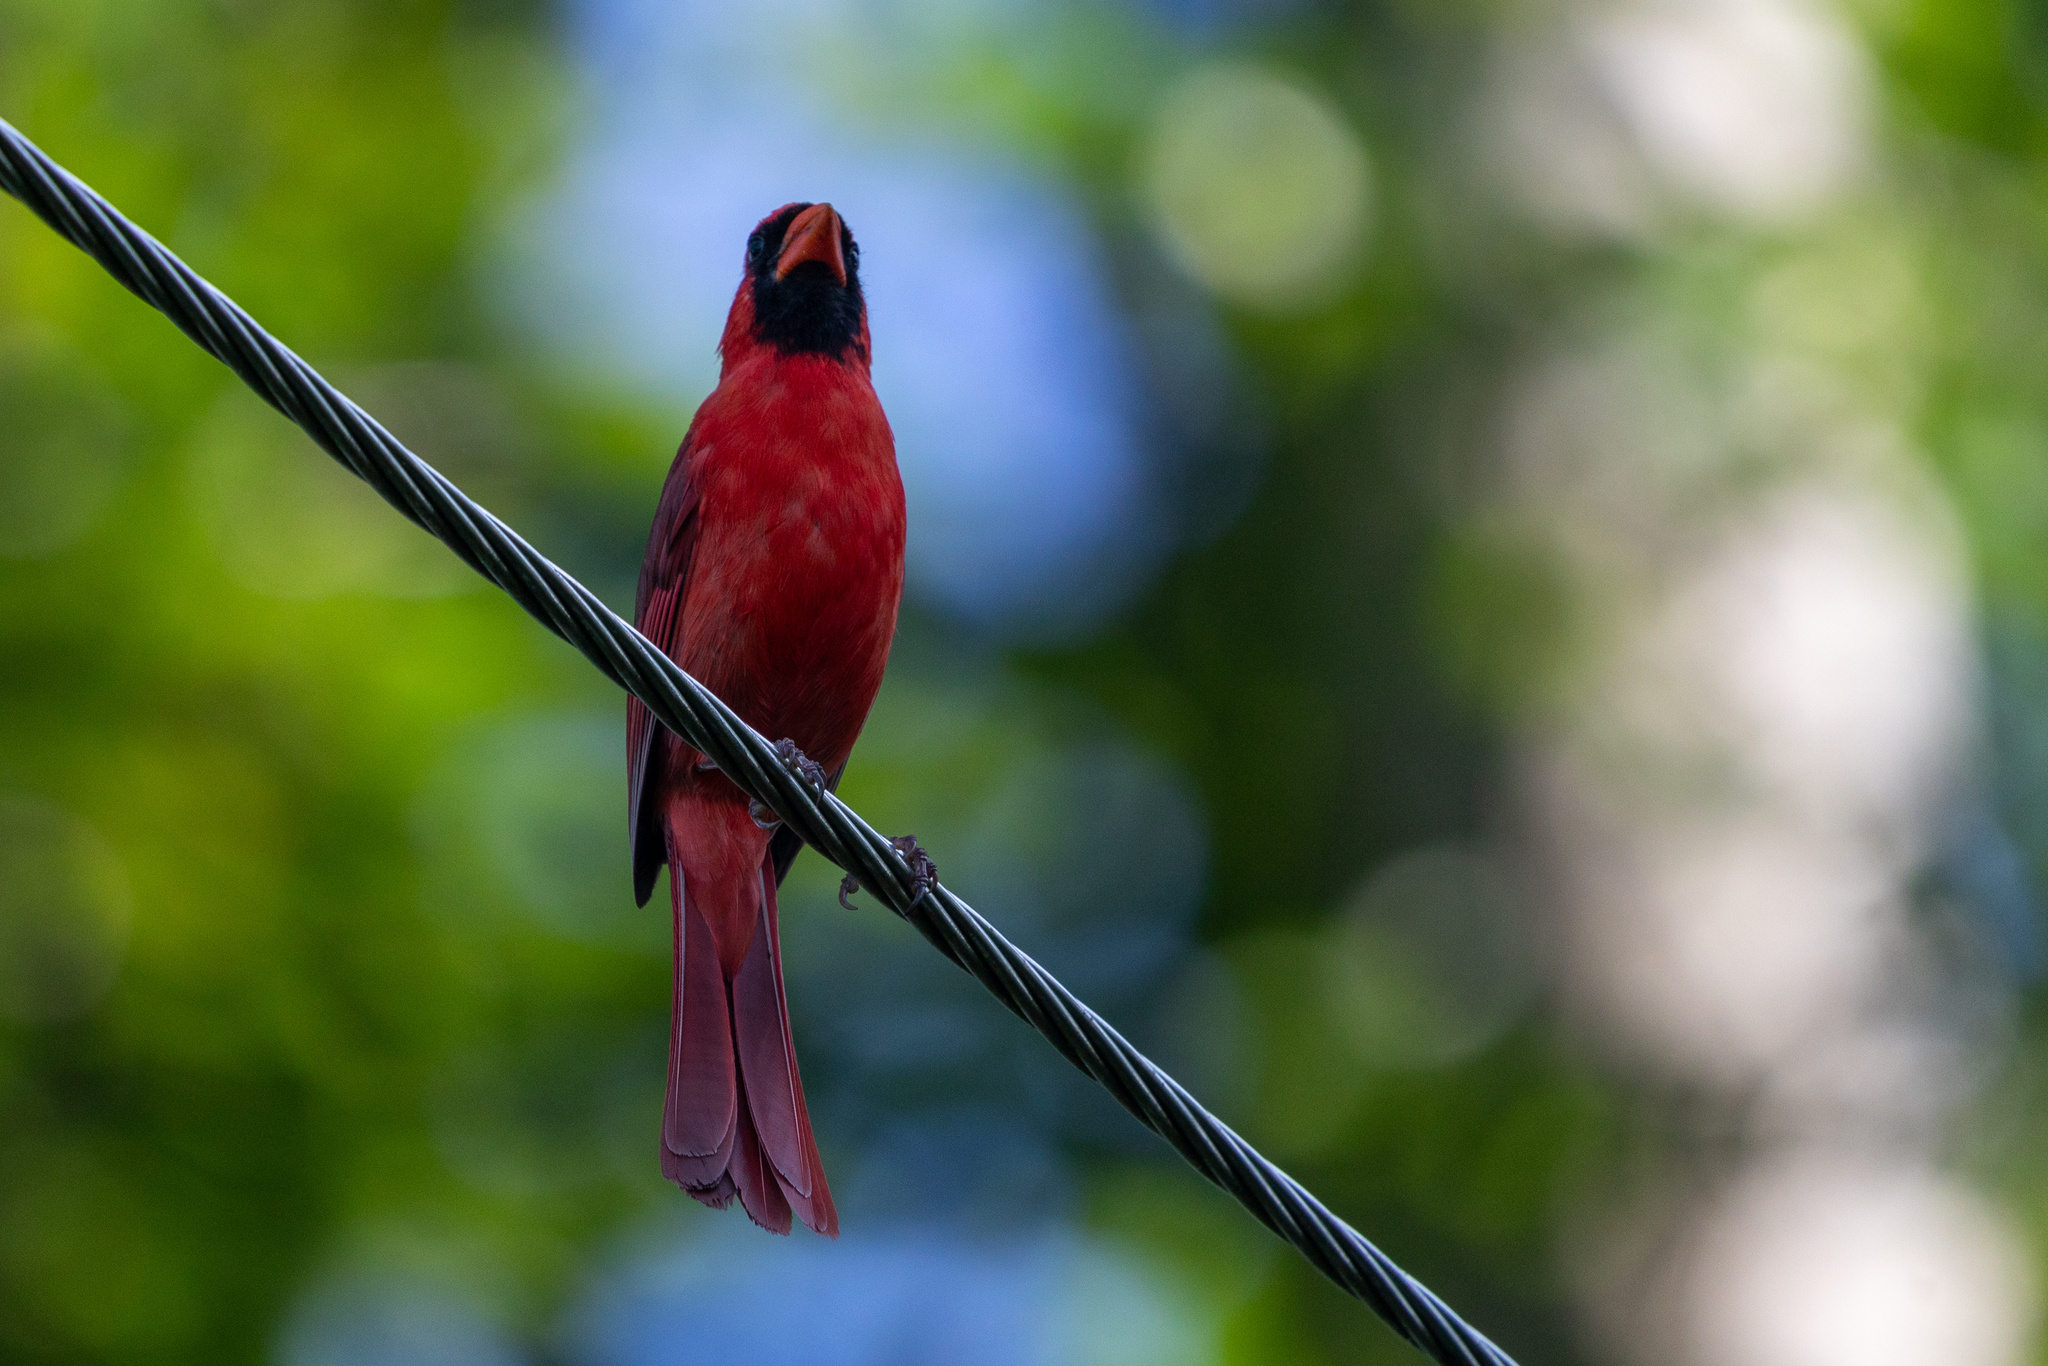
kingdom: Animalia
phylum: Chordata
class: Aves
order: Passeriformes
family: Cardinalidae
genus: Cardinalis
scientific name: Cardinalis cardinalis
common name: Northern cardinal
